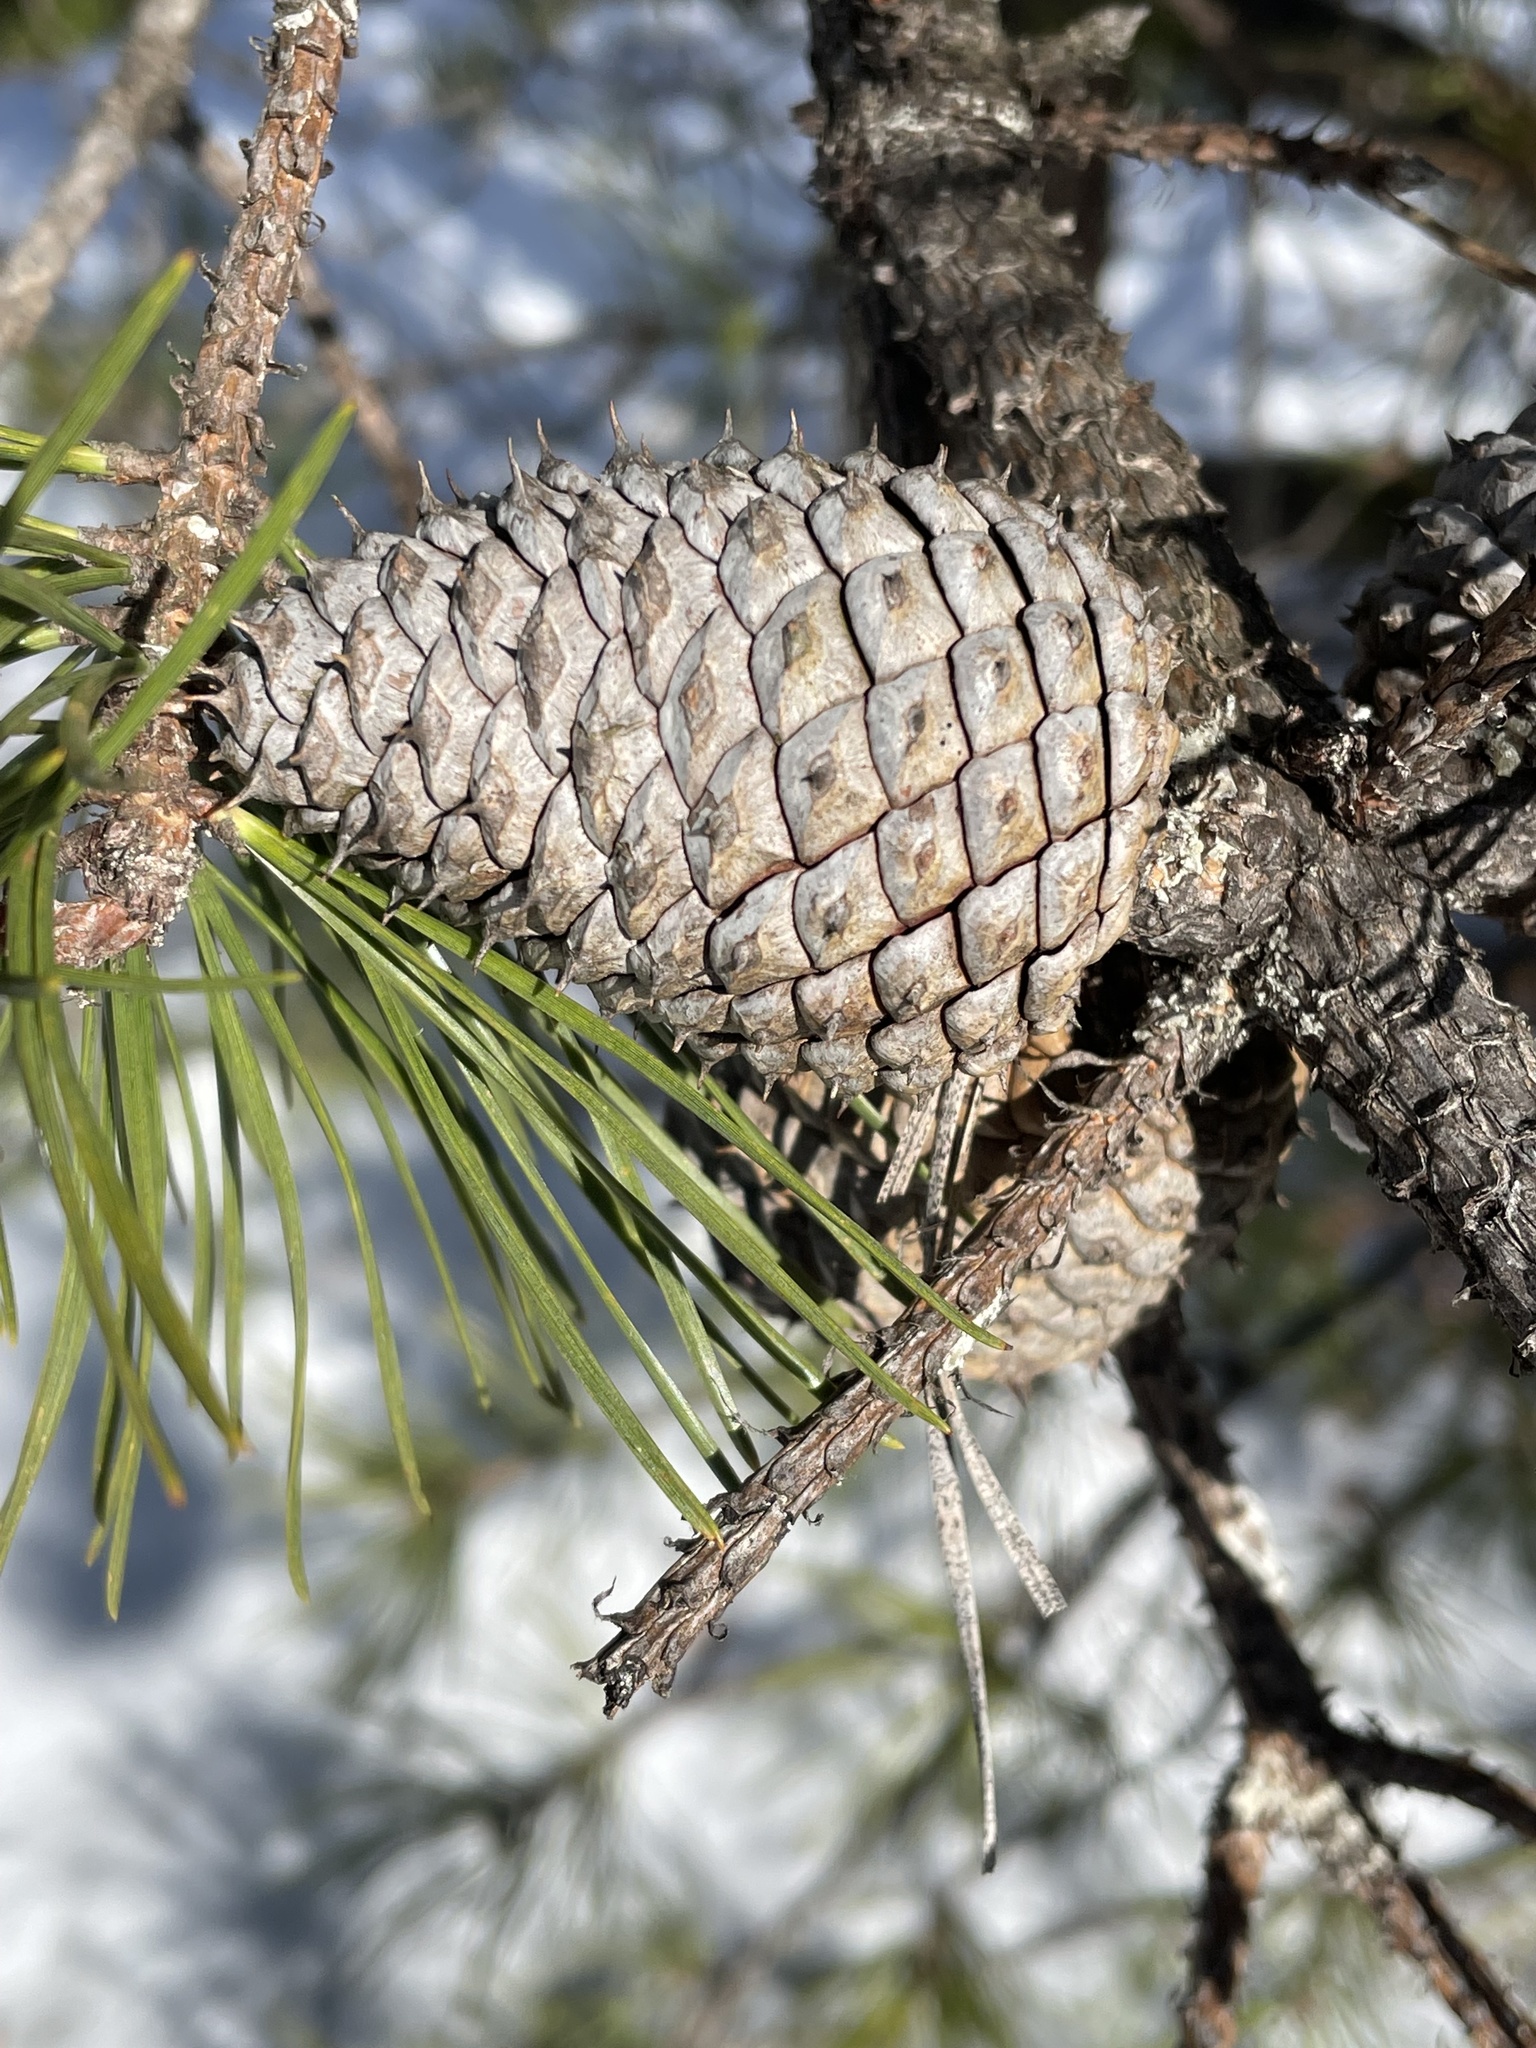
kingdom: Plantae
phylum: Tracheophyta
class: Pinopsida
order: Pinales
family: Pinaceae
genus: Pinus
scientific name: Pinus rigida
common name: Pitch pine
